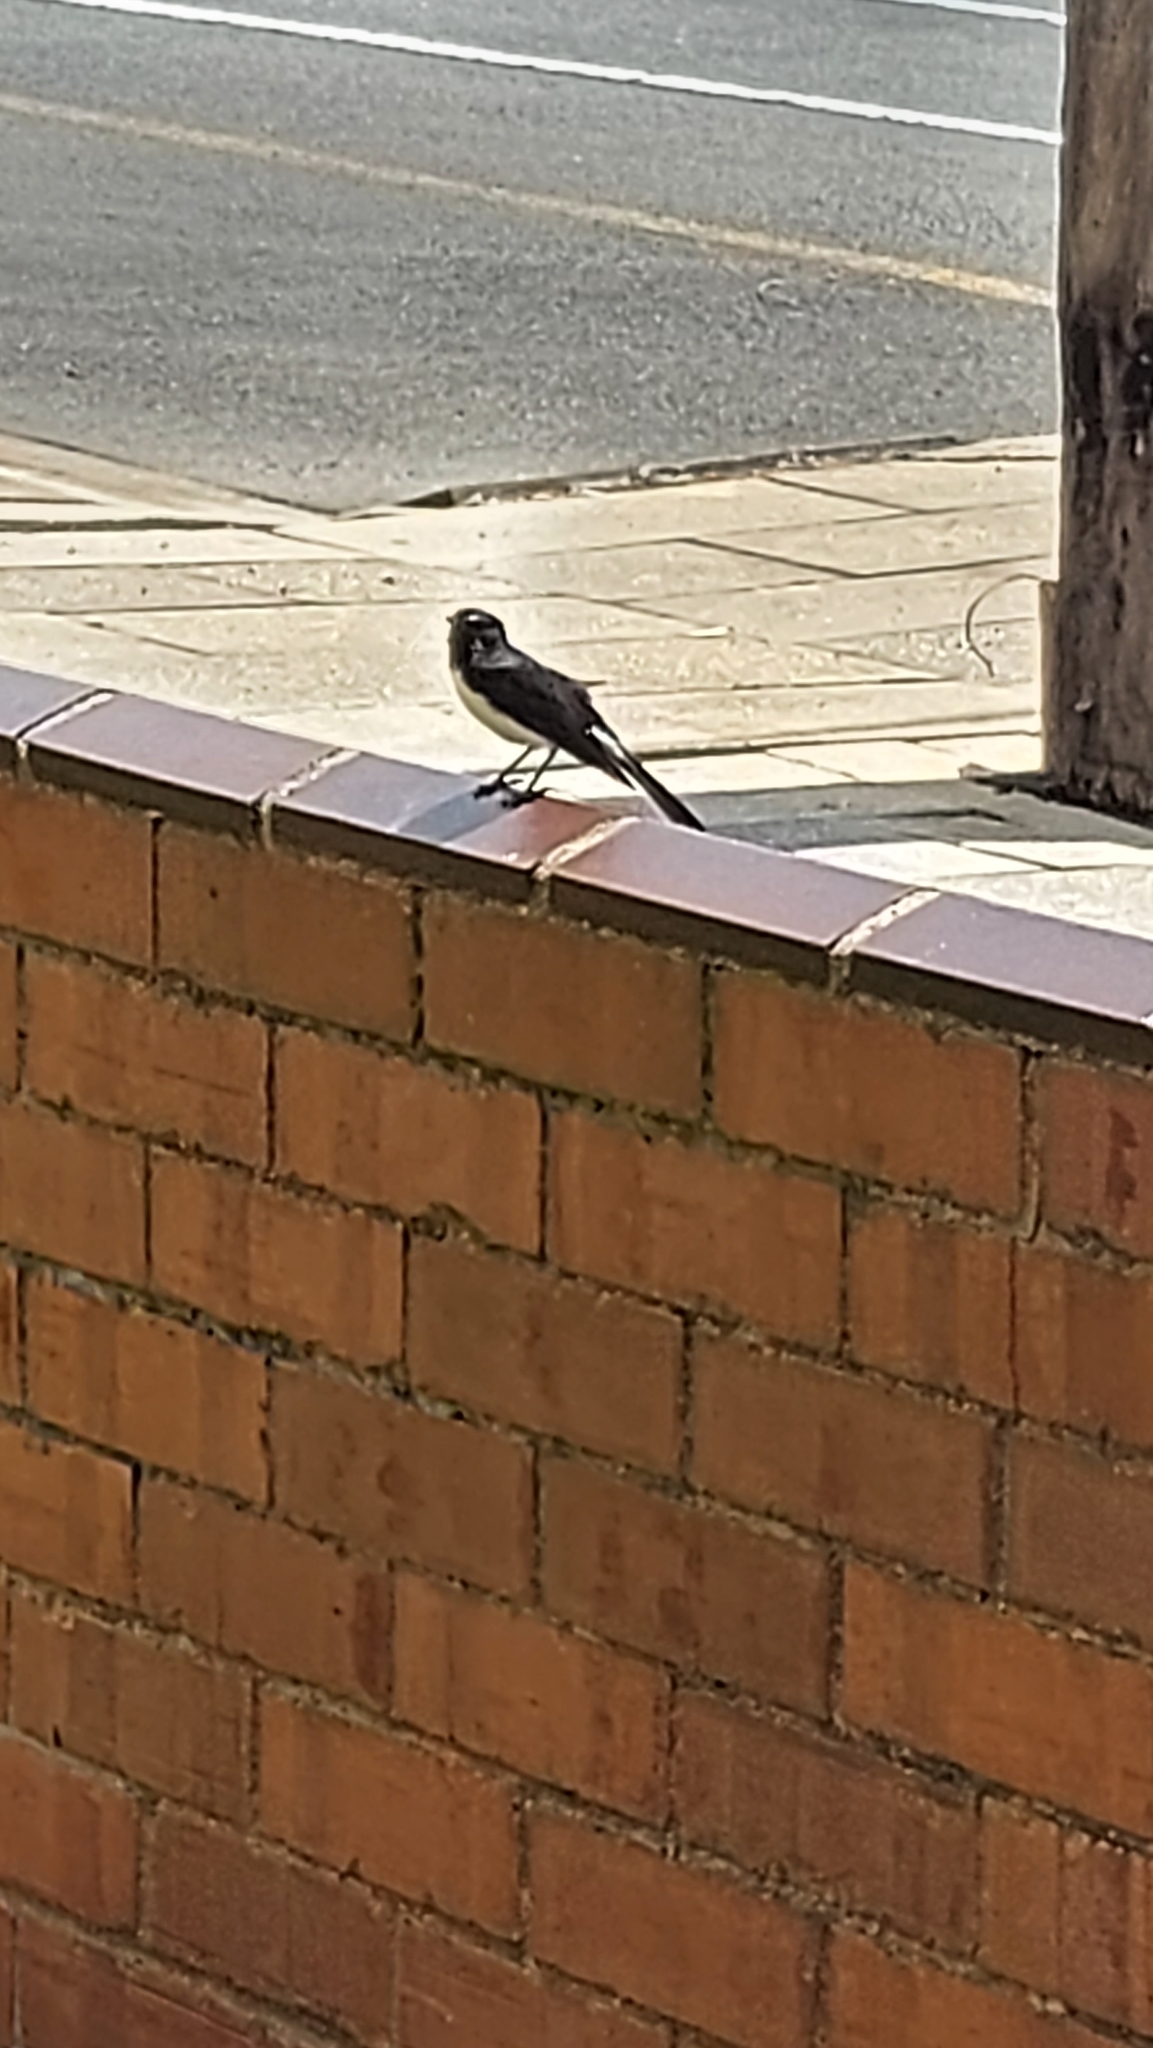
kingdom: Animalia
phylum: Chordata
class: Aves
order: Passeriformes
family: Rhipiduridae
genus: Rhipidura
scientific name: Rhipidura leucophrys
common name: Willie wagtail
